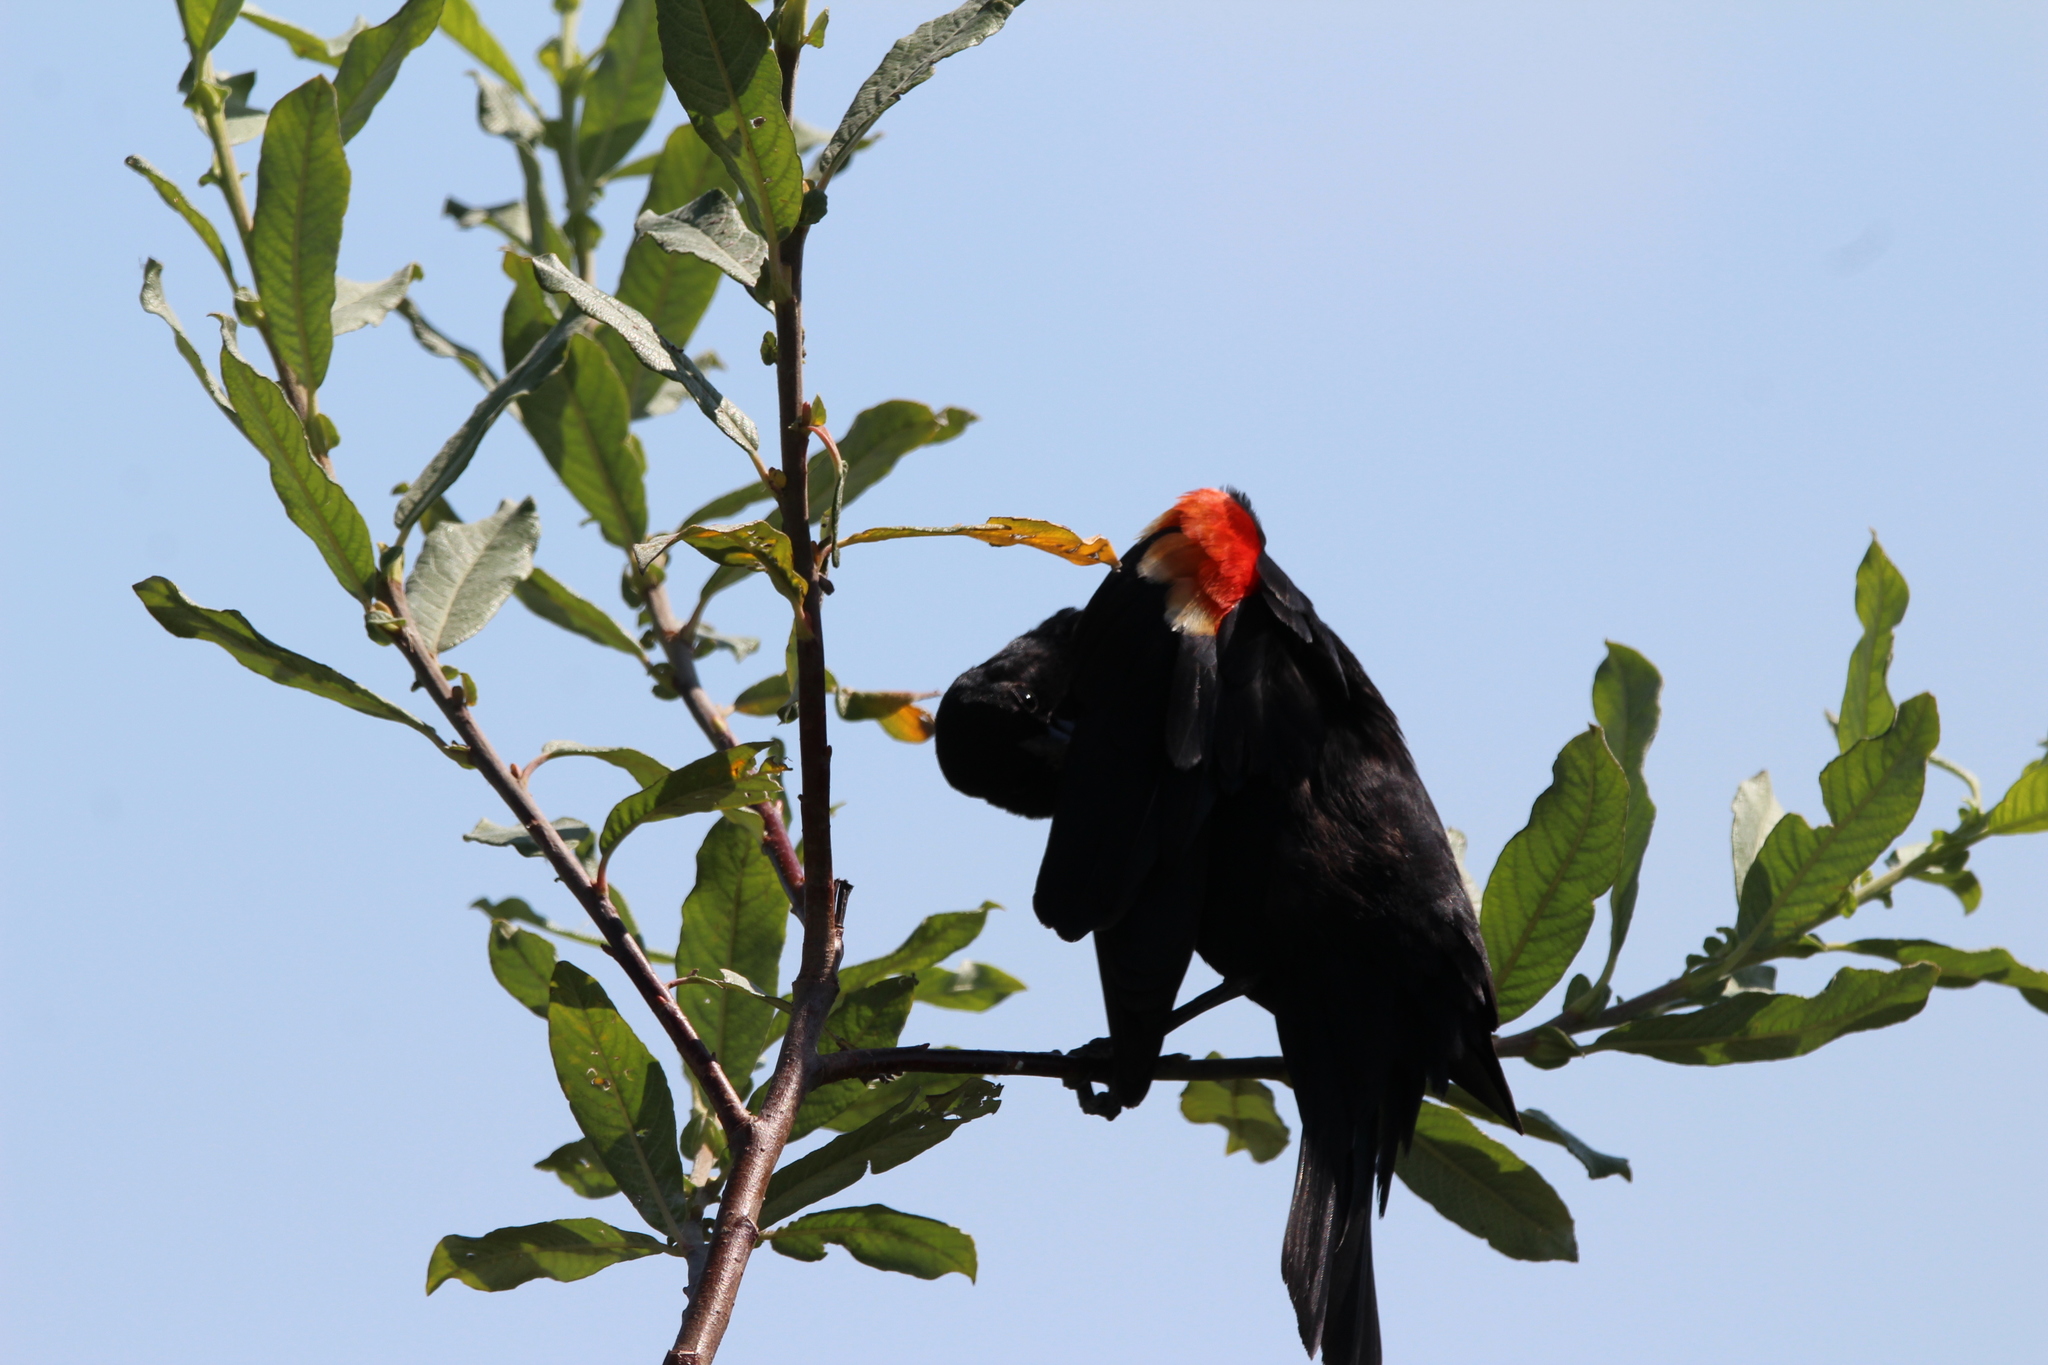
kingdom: Animalia
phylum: Chordata
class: Aves
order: Passeriformes
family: Icteridae
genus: Agelaius
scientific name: Agelaius phoeniceus
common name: Red-winged blackbird
